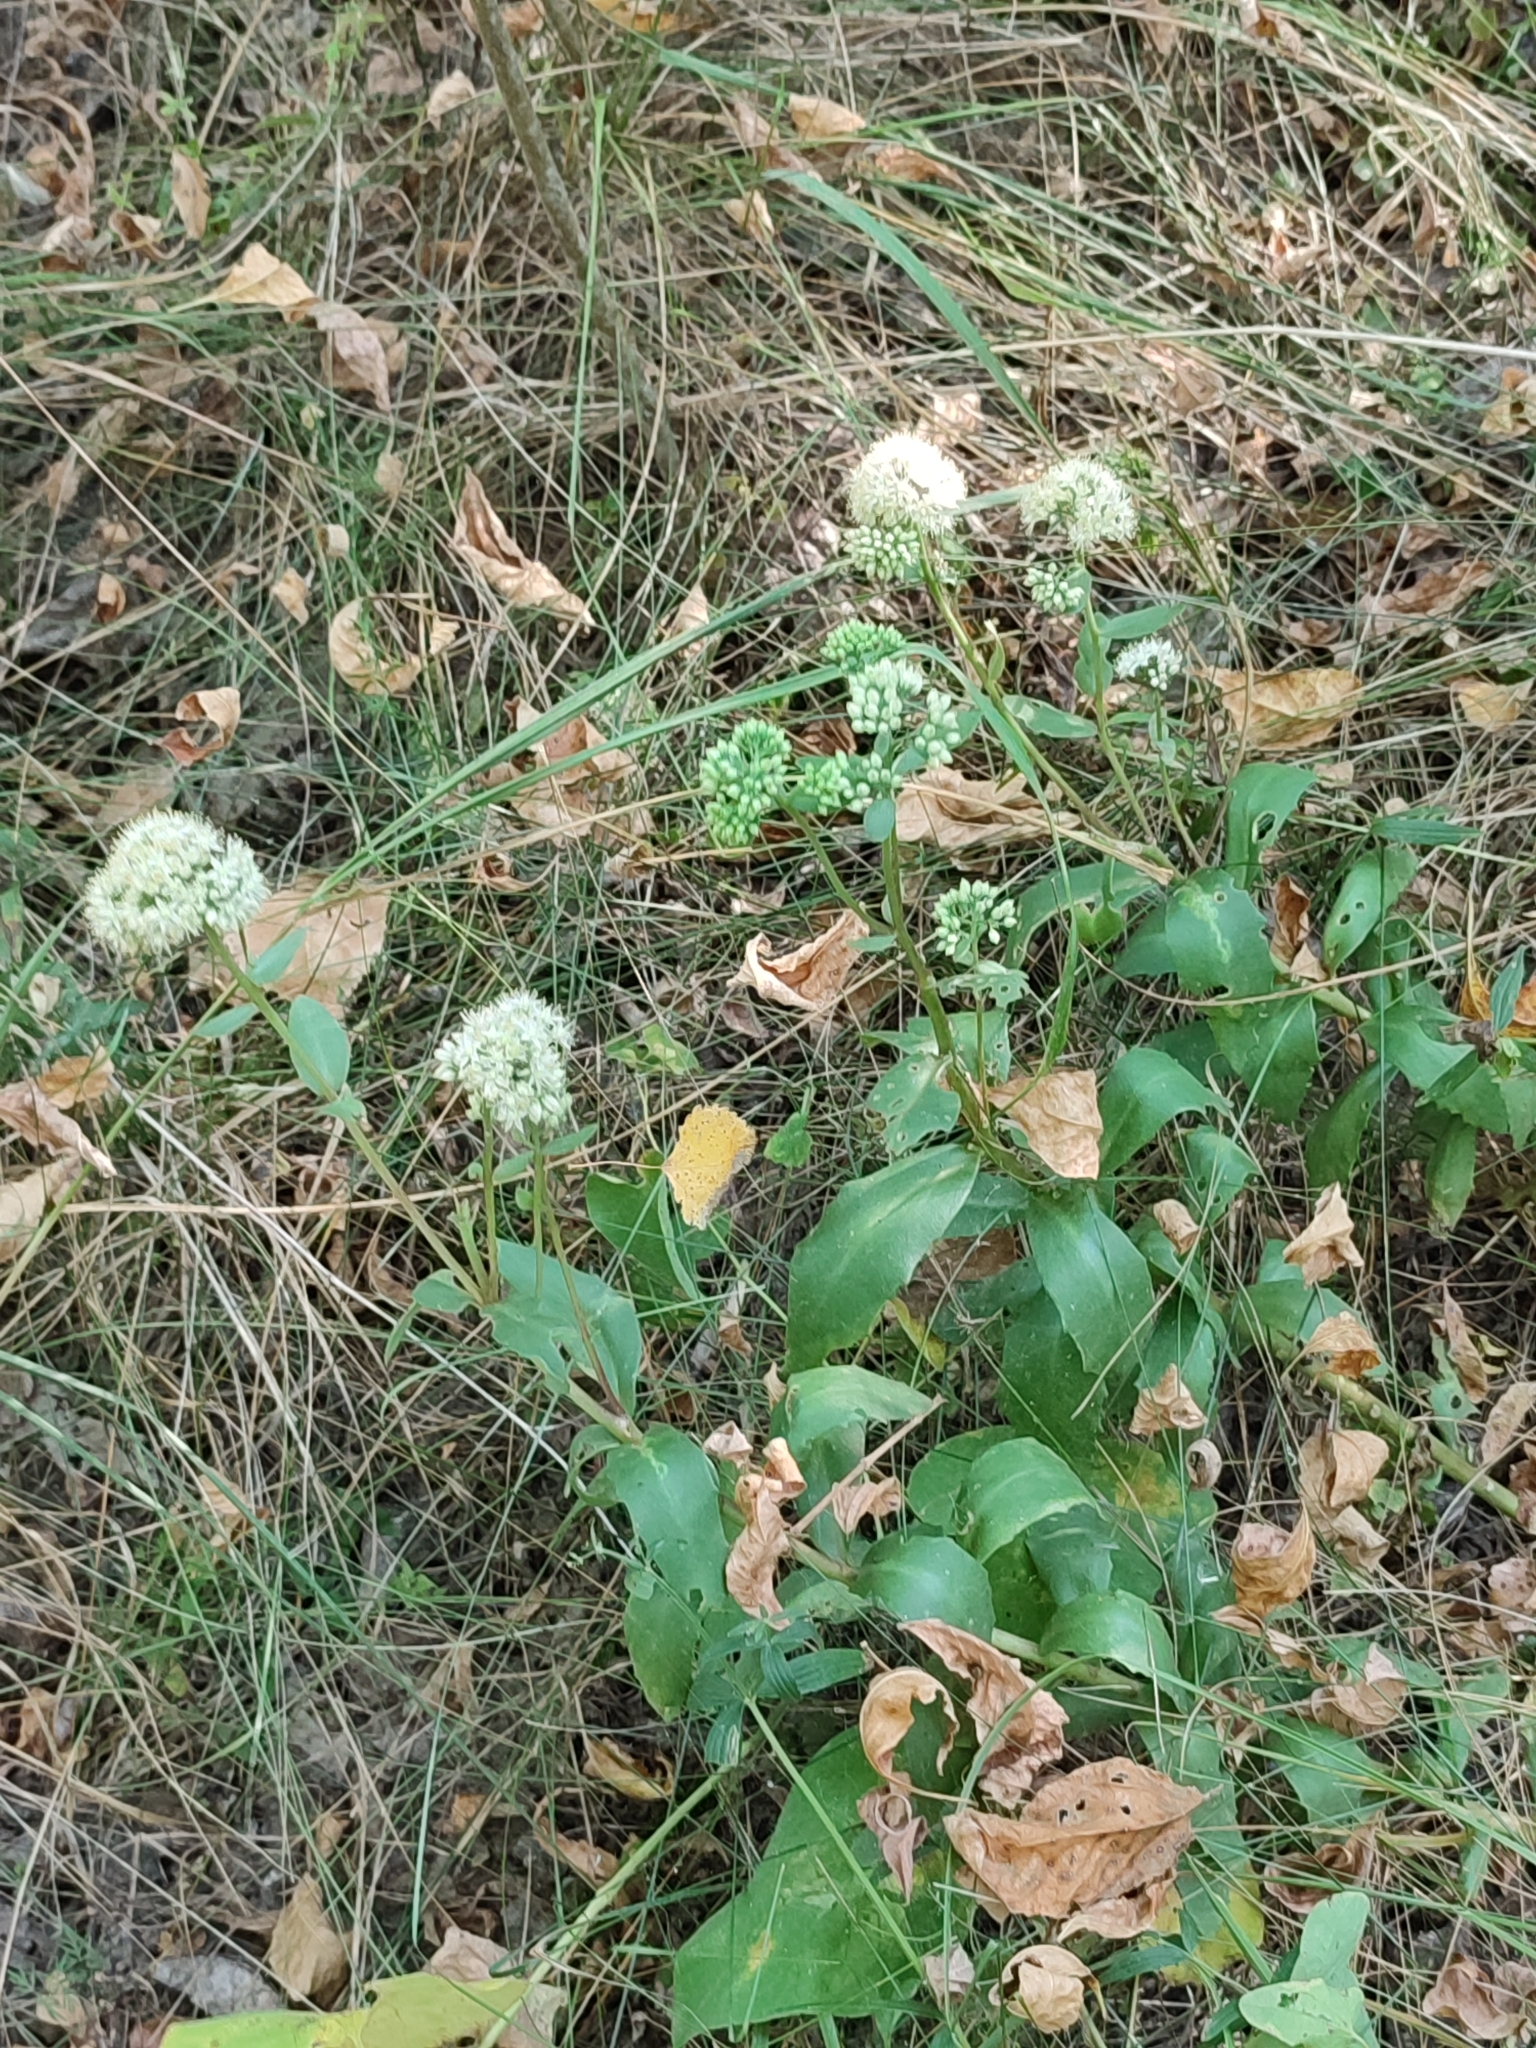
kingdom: Plantae
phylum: Tracheophyta
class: Magnoliopsida
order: Saxifragales
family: Crassulaceae
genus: Hylotelephium
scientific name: Hylotelephium maximum
